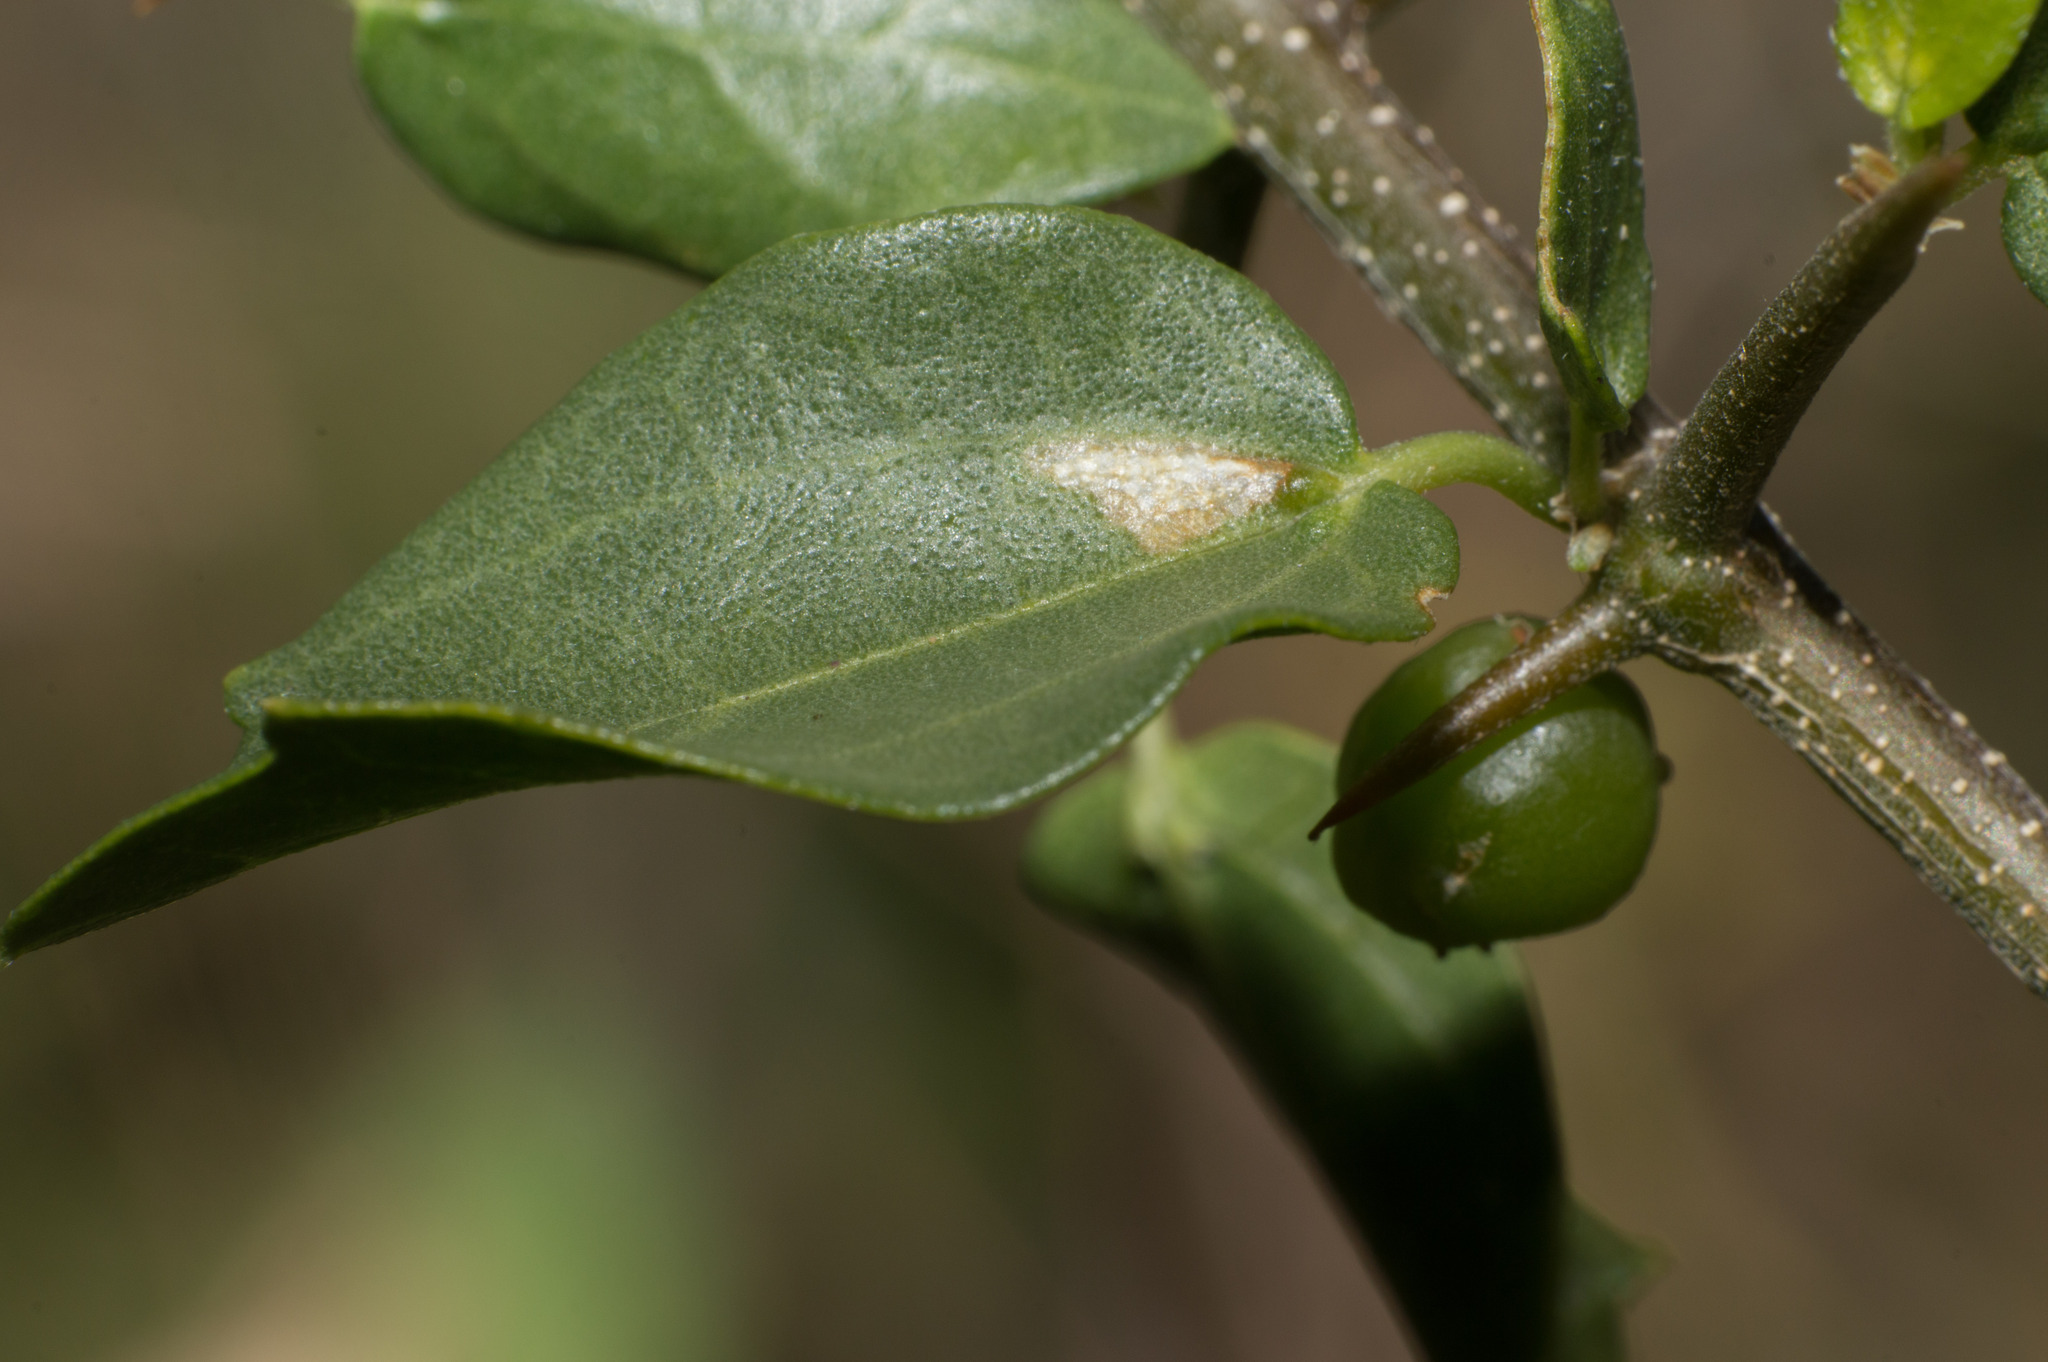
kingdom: Plantae
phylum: Tracheophyta
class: Magnoliopsida
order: Rosales
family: Cannabaceae
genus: Celtis
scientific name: Celtis pallida
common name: Desert hackberry
